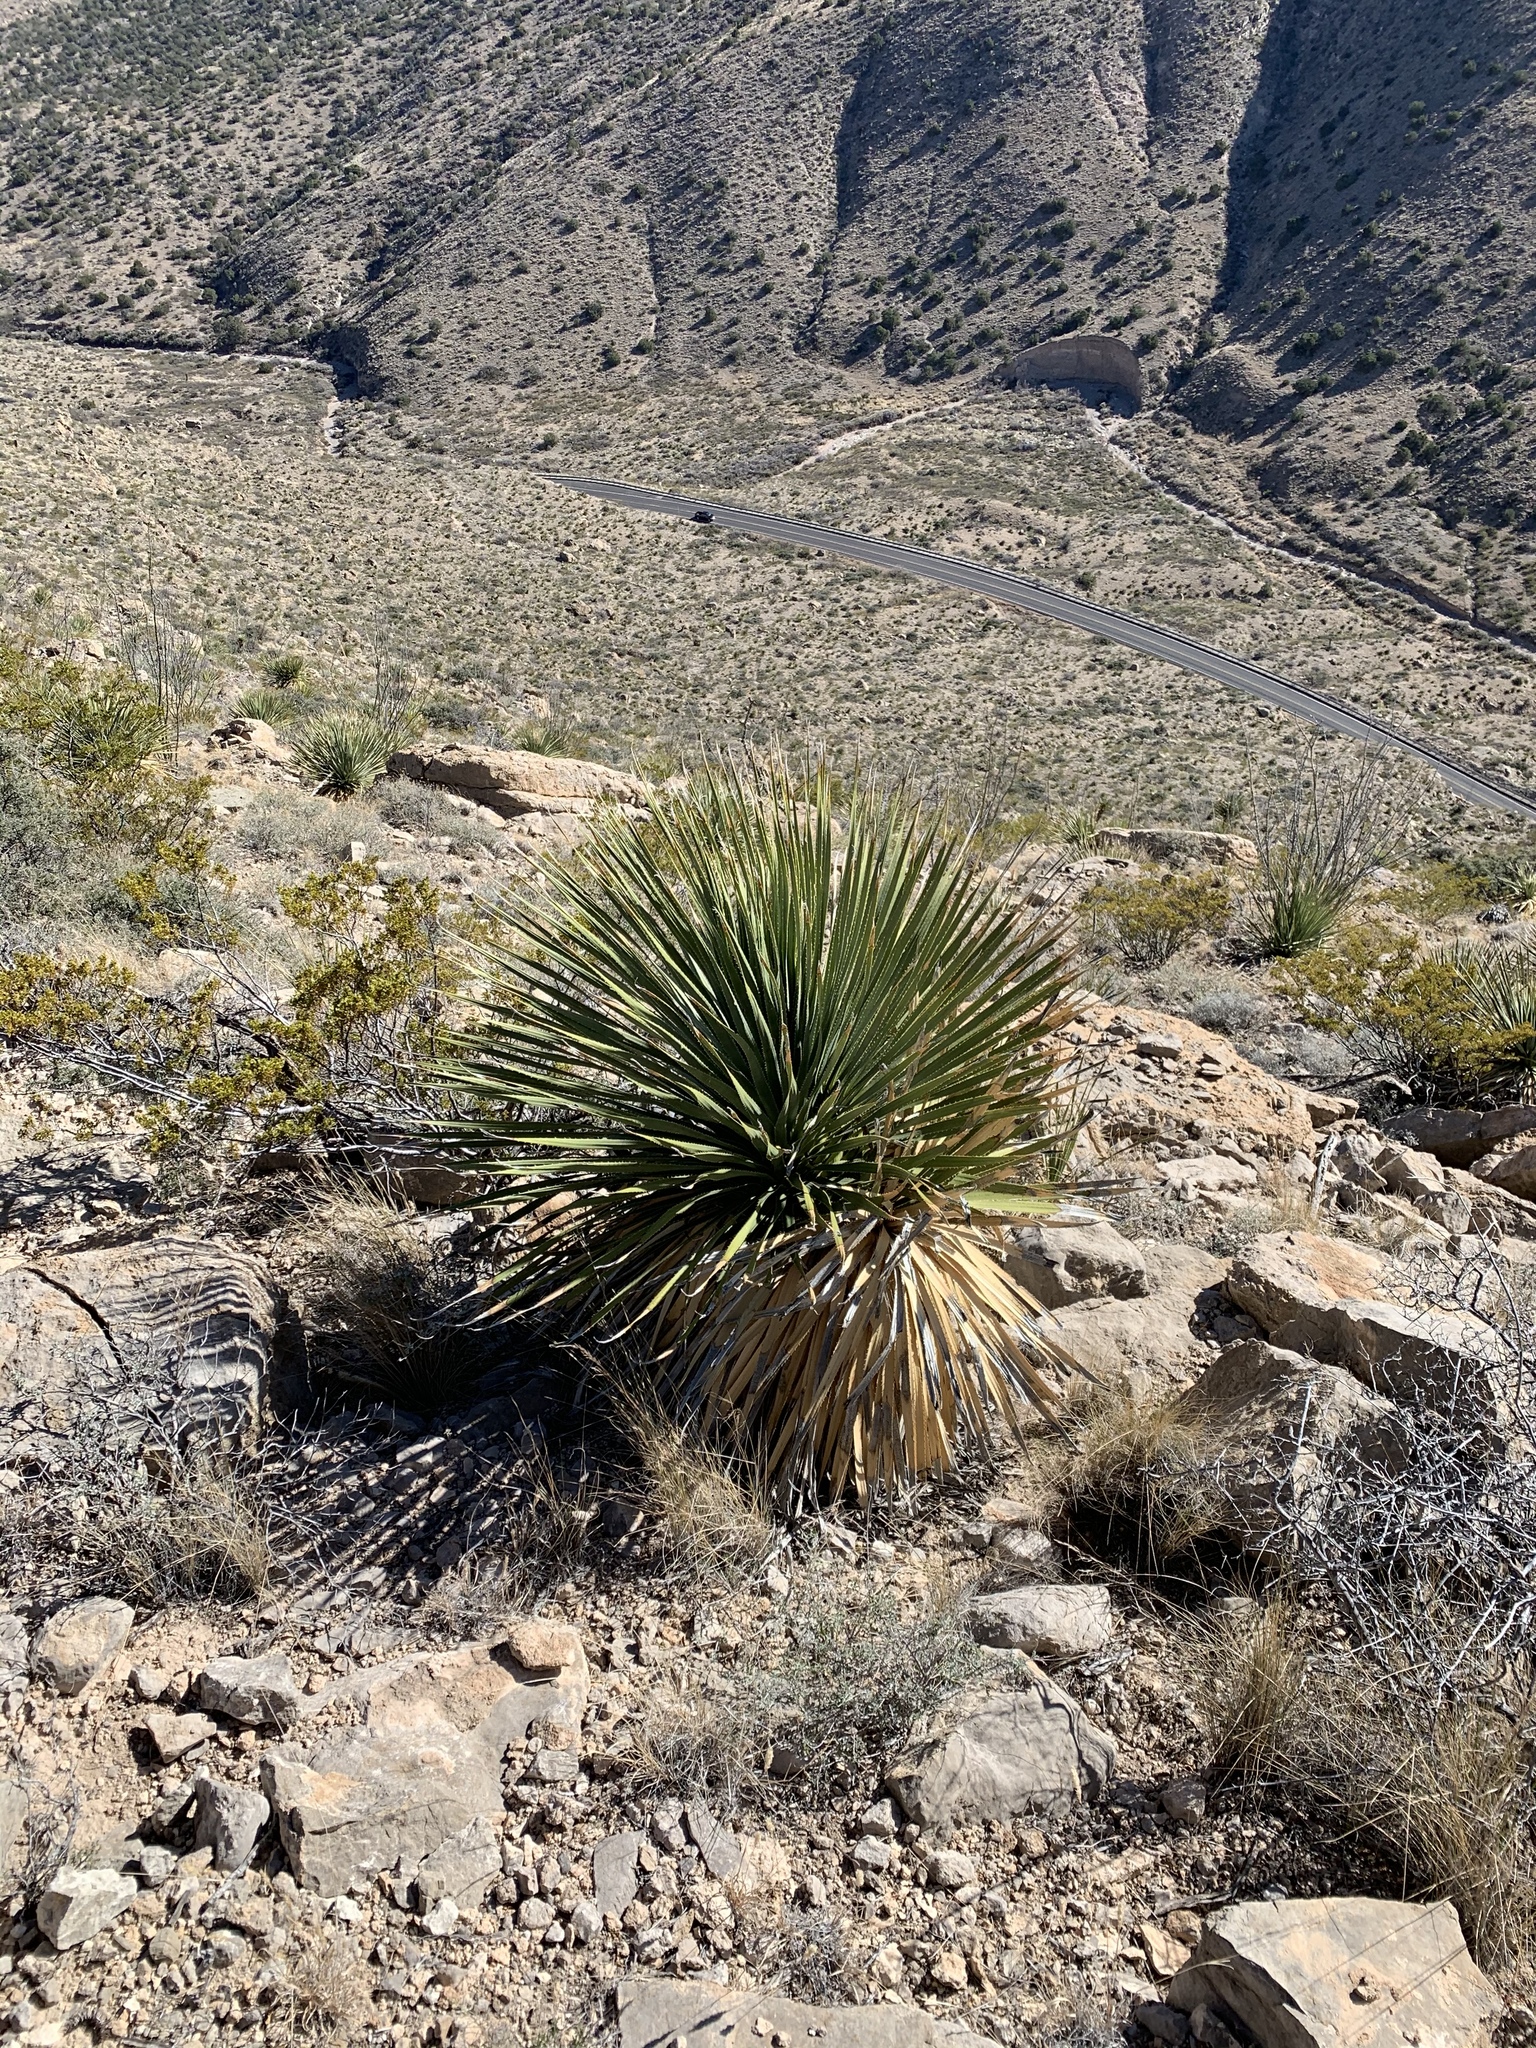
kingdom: Plantae
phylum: Tracheophyta
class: Liliopsida
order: Asparagales
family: Asparagaceae
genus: Dasylirion
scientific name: Dasylirion wheeleri
